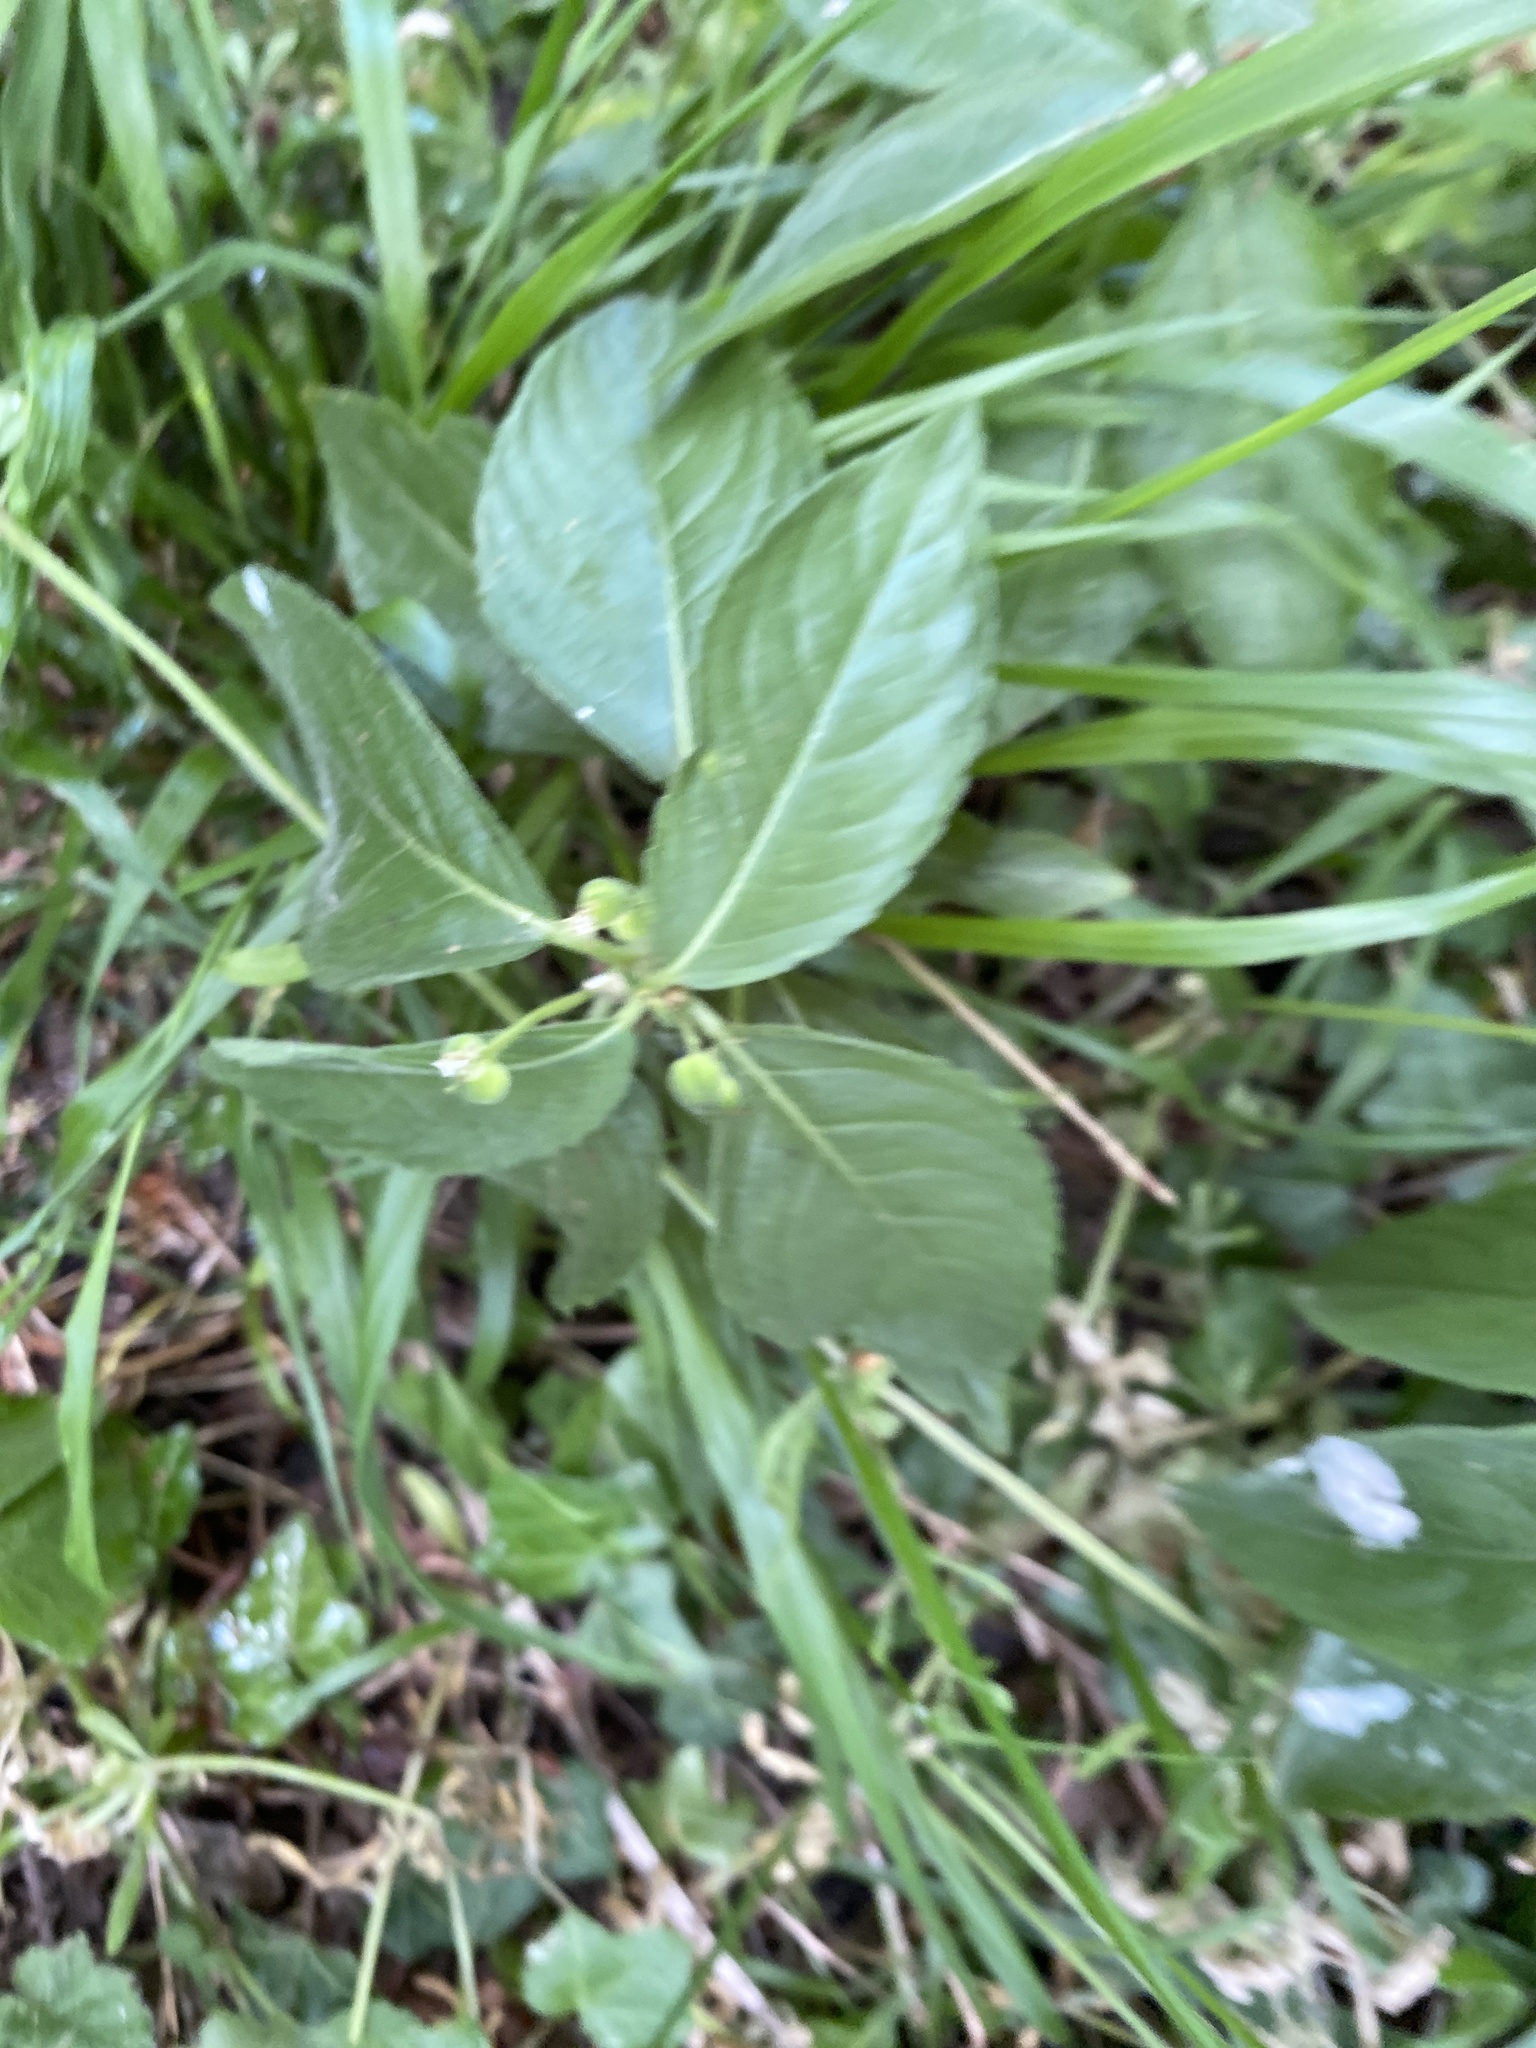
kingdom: Plantae
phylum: Tracheophyta
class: Magnoliopsida
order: Malpighiales
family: Euphorbiaceae
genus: Mercurialis
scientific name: Mercurialis perennis
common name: Dog mercury
